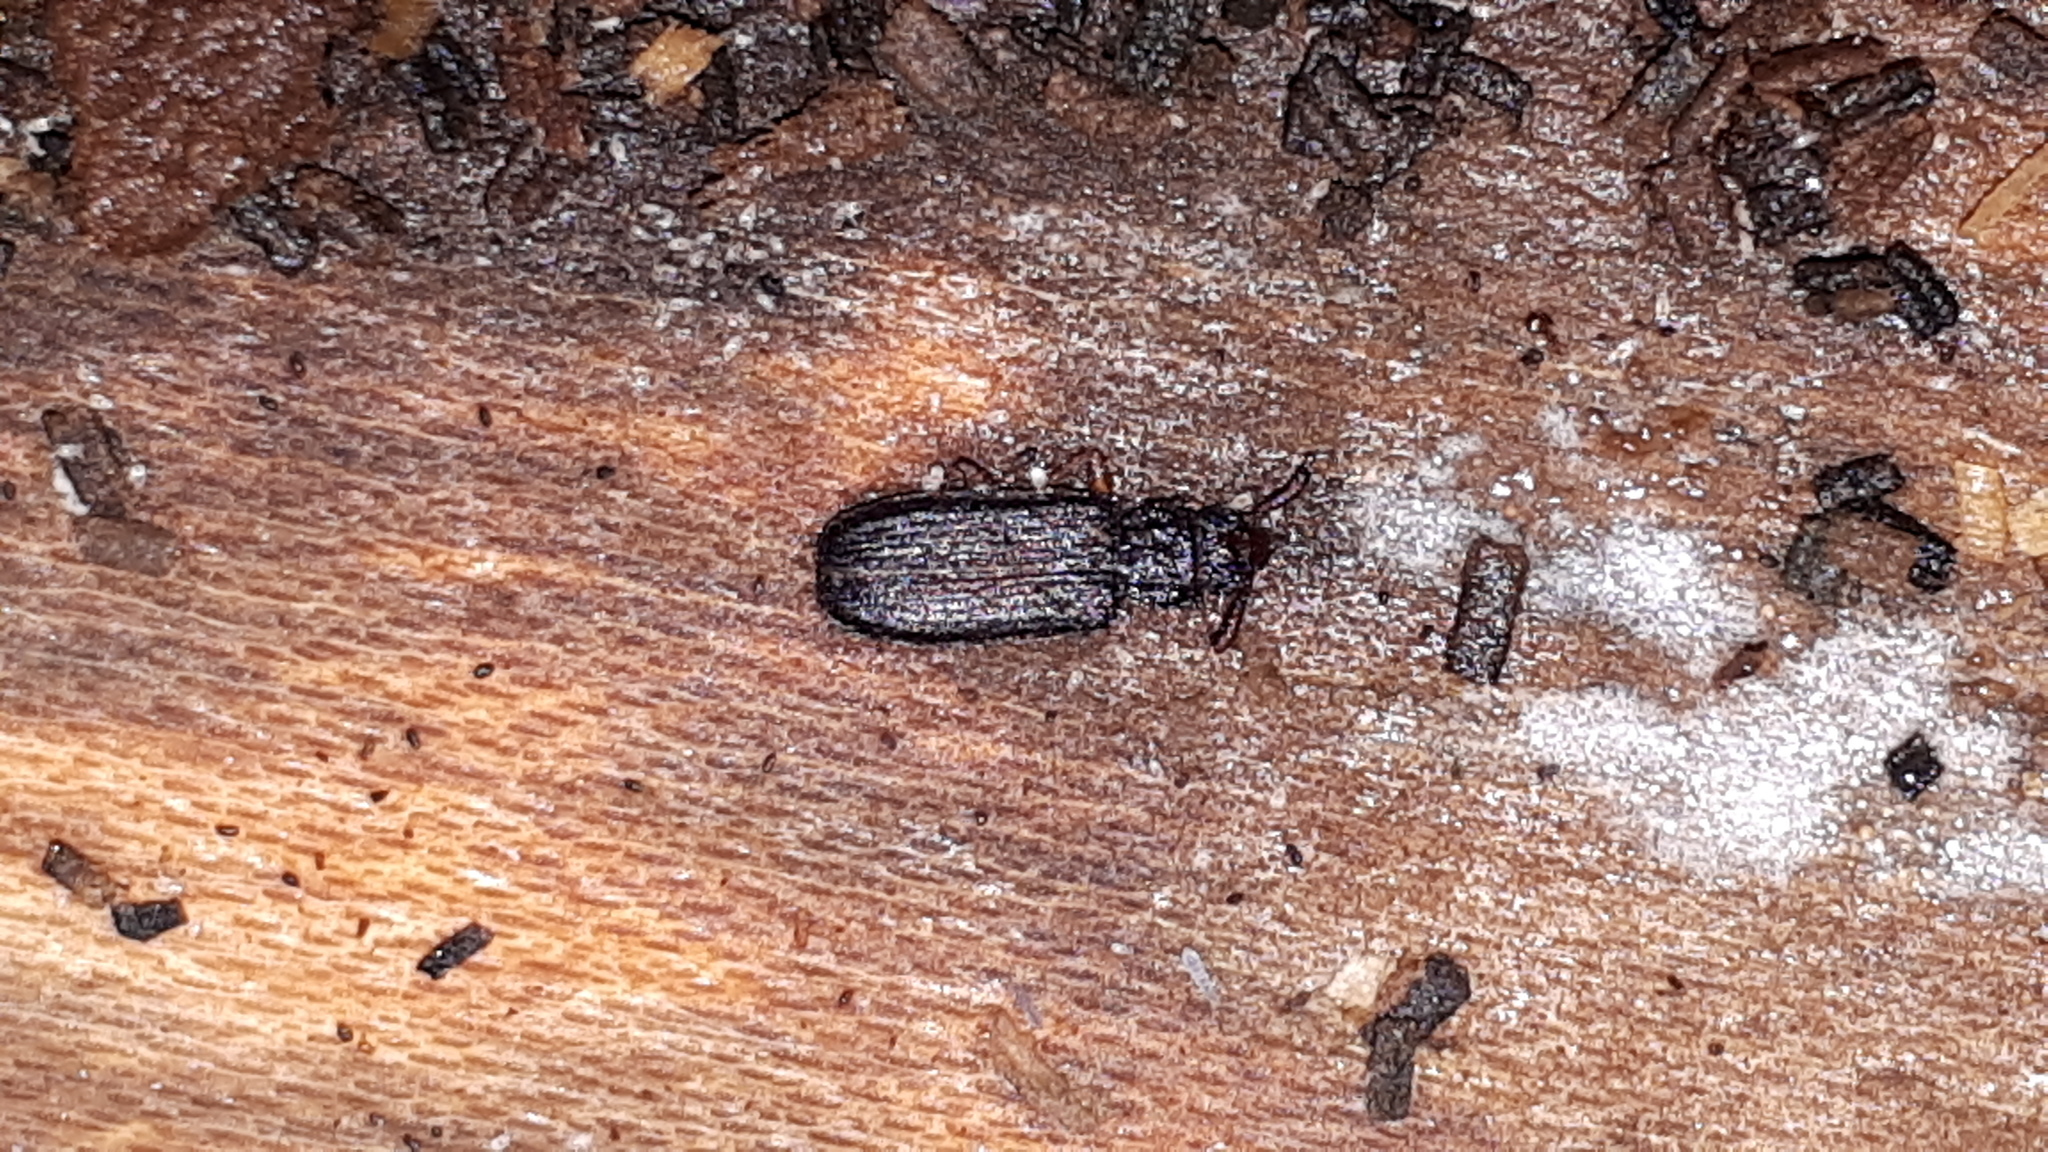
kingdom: Animalia
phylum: Arthropoda
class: Insecta
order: Coleoptera
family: Silvanidae
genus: Uleiota
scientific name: Uleiota planatus
